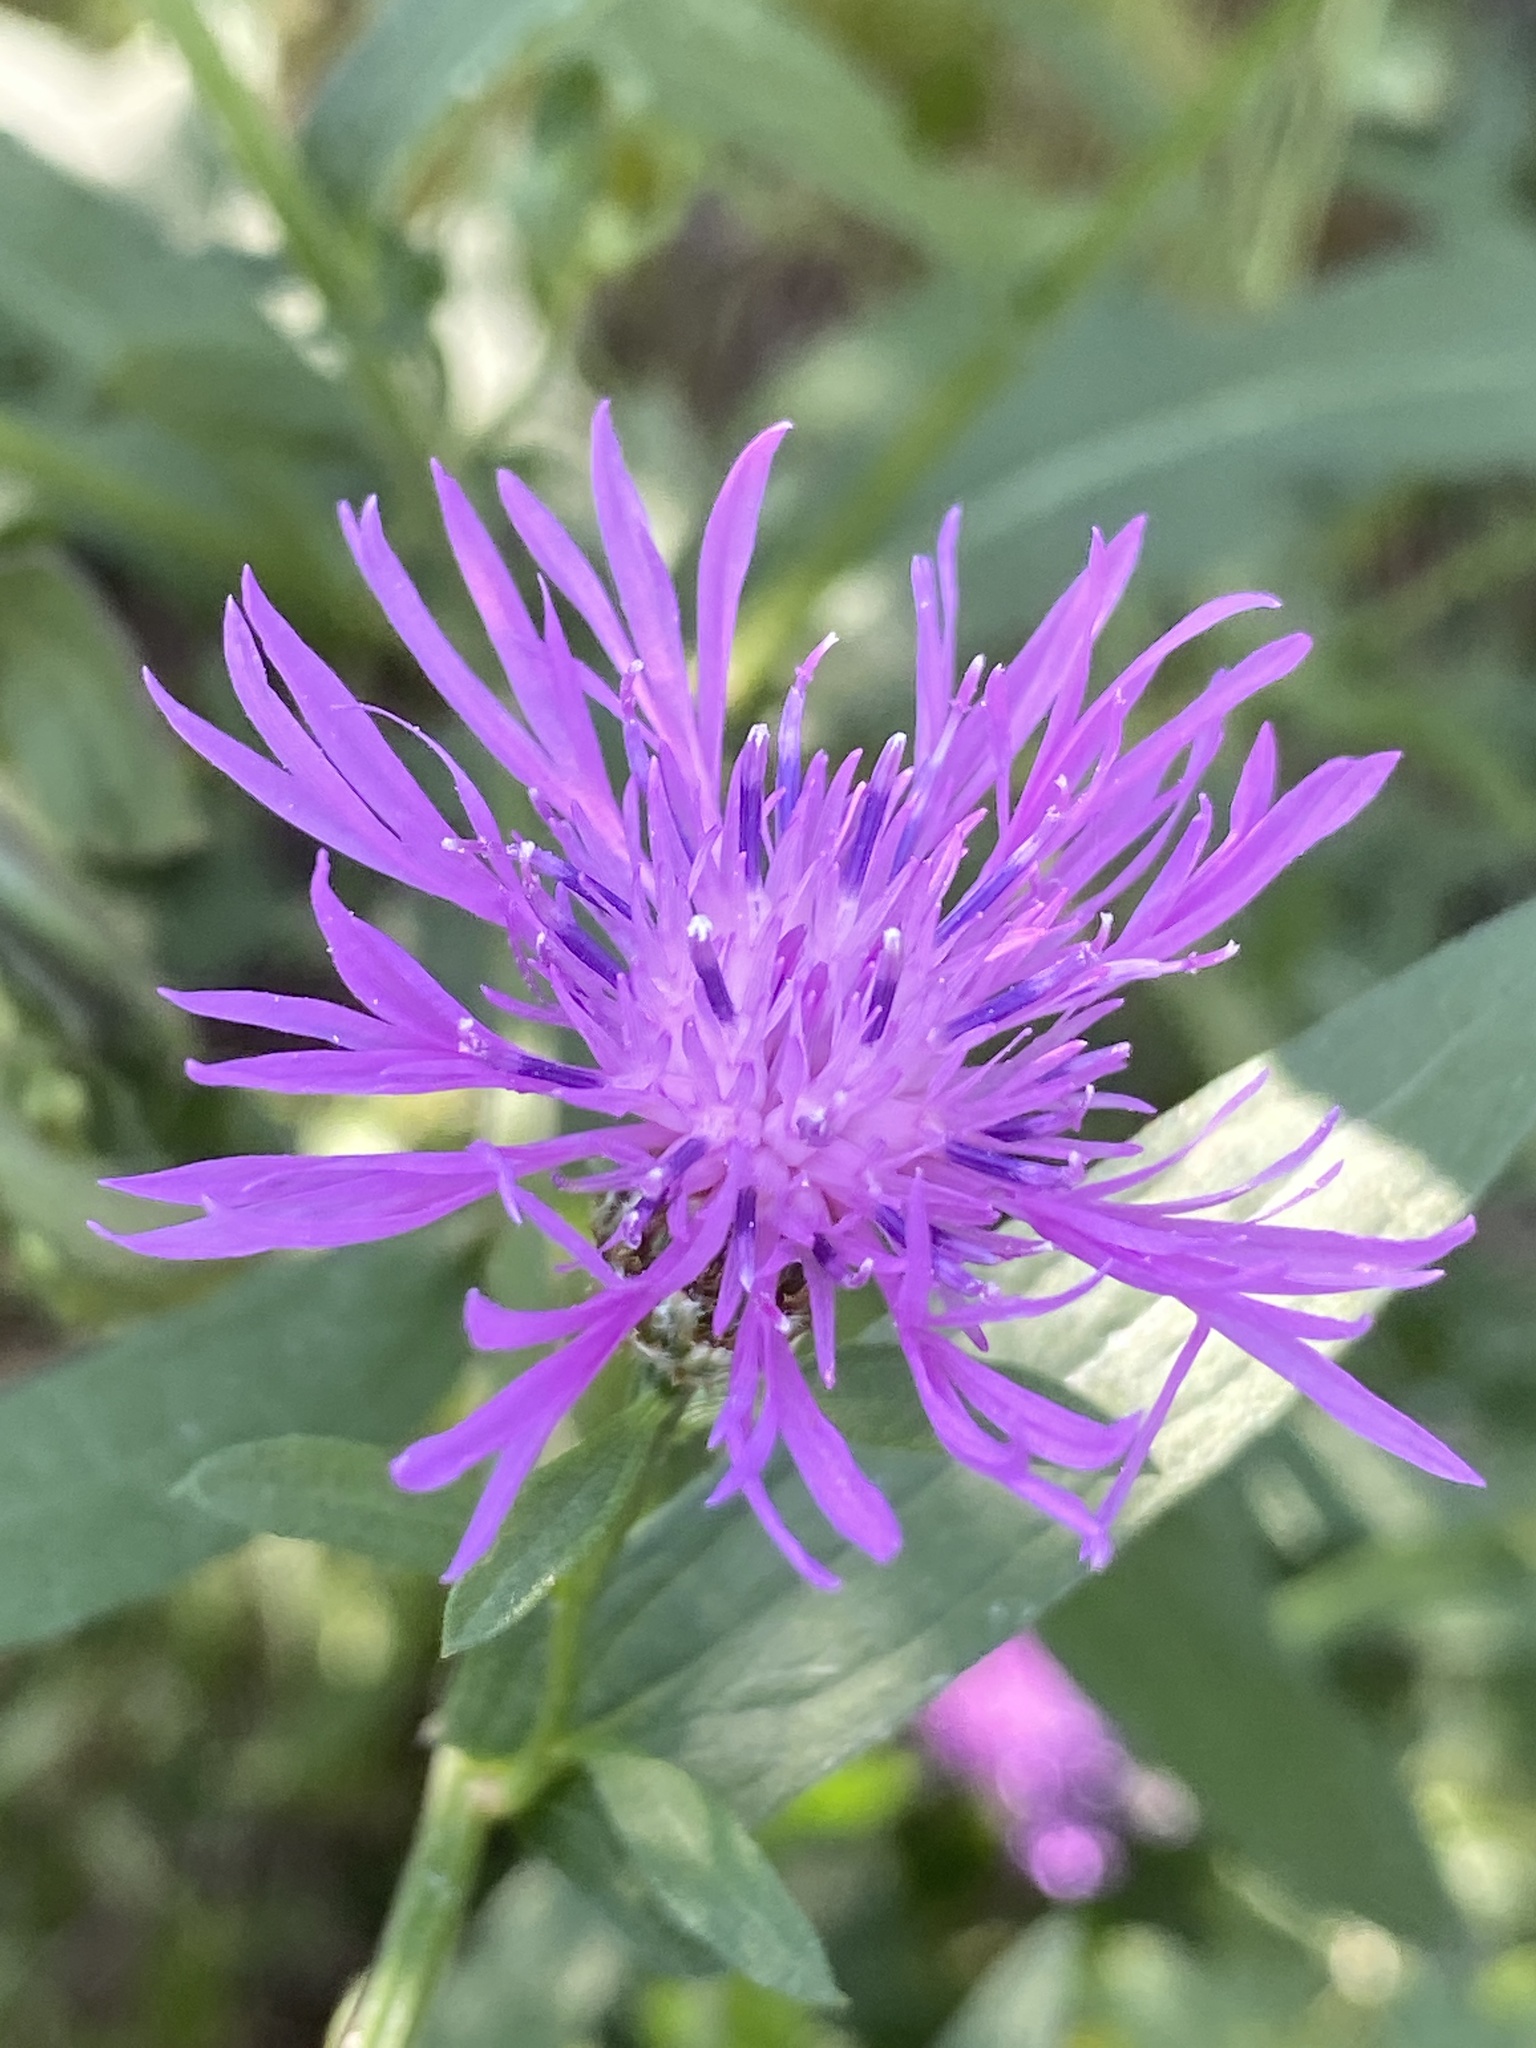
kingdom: Plantae
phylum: Tracheophyta
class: Magnoliopsida
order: Asterales
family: Asteraceae
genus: Centaurea
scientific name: Centaurea nigrescens
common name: Tyrol knapweed
